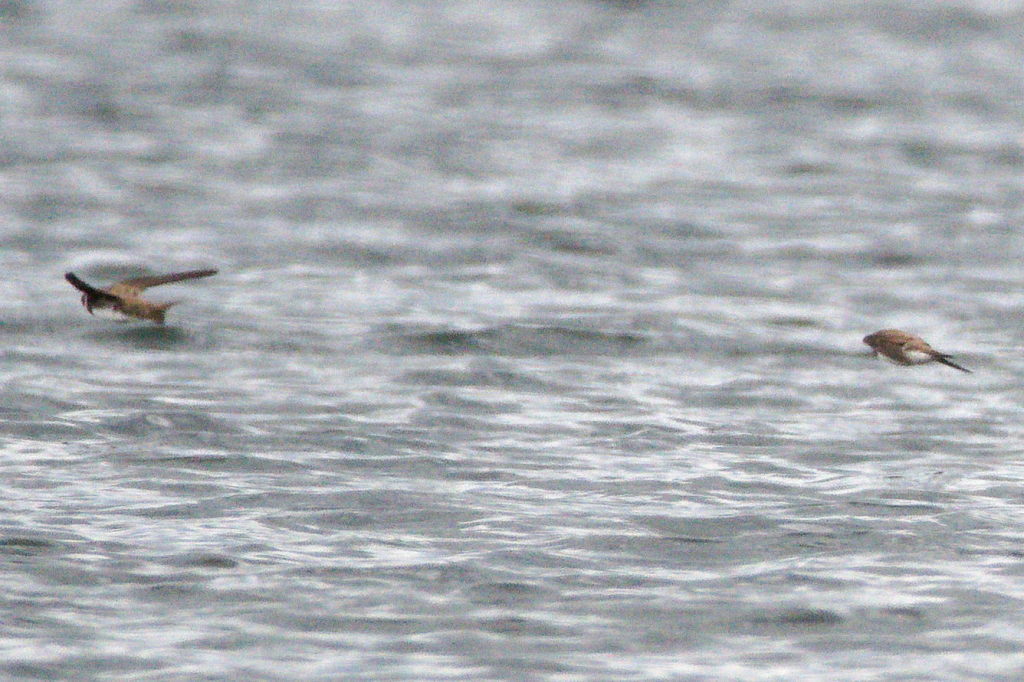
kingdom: Animalia
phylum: Chordata
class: Aves
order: Passeriformes
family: Hirundinidae
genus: Riparia
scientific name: Riparia riparia
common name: Sand martin
